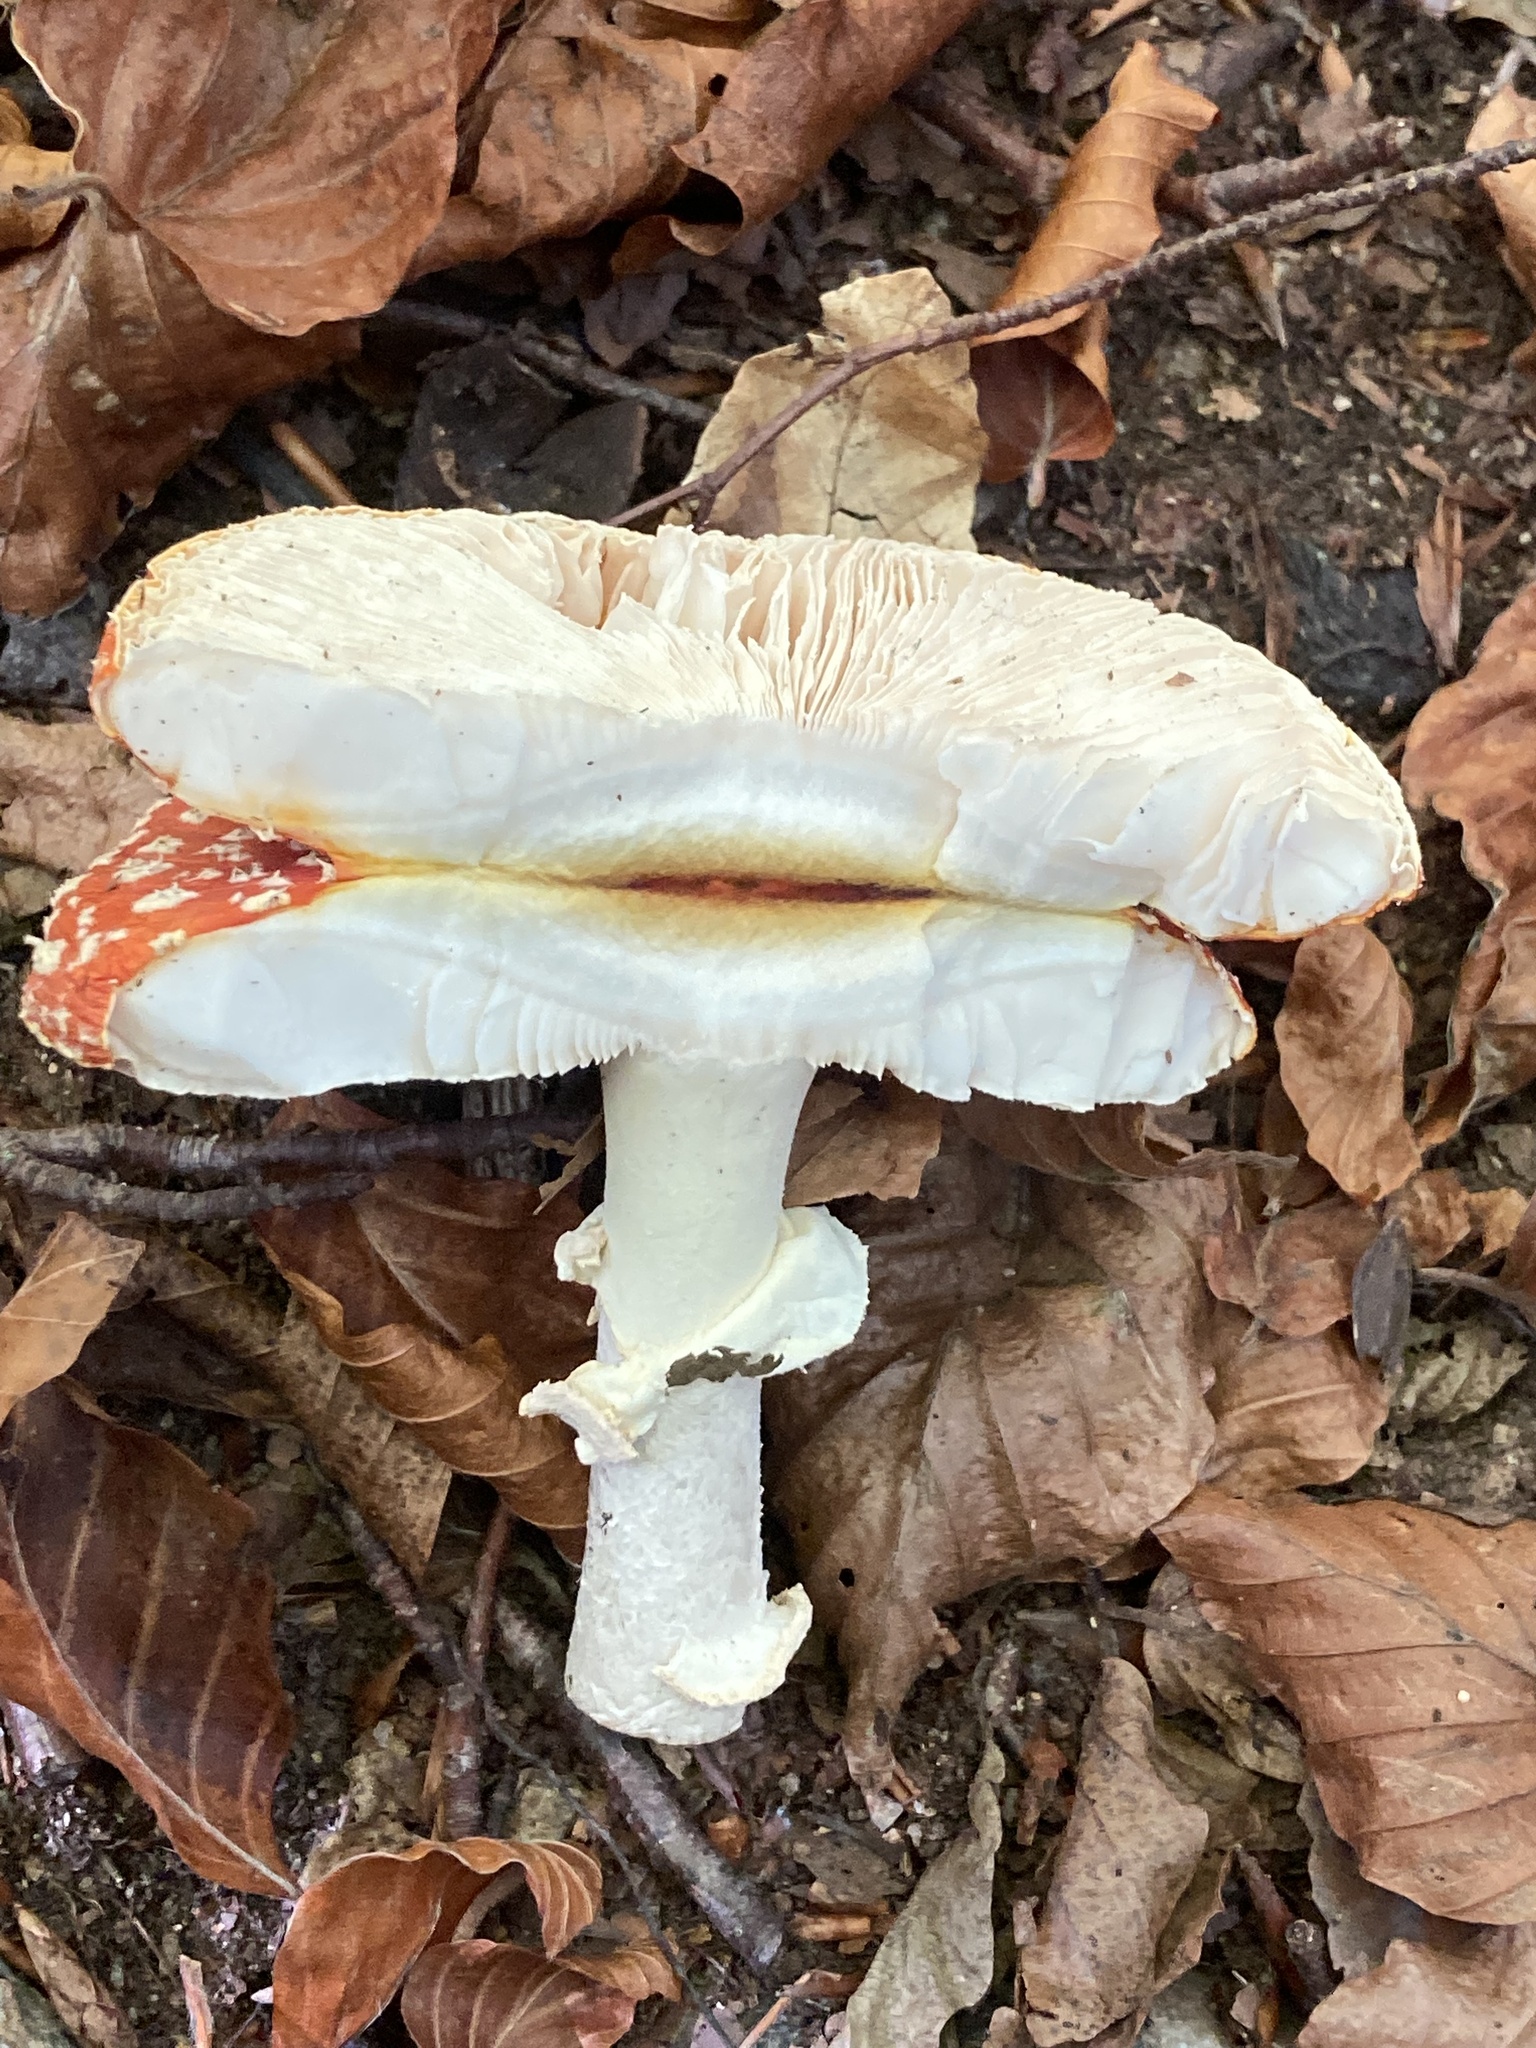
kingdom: Fungi
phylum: Basidiomycota
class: Agaricomycetes
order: Agaricales
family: Amanitaceae
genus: Amanita
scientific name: Amanita muscaria
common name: Fly agaric
